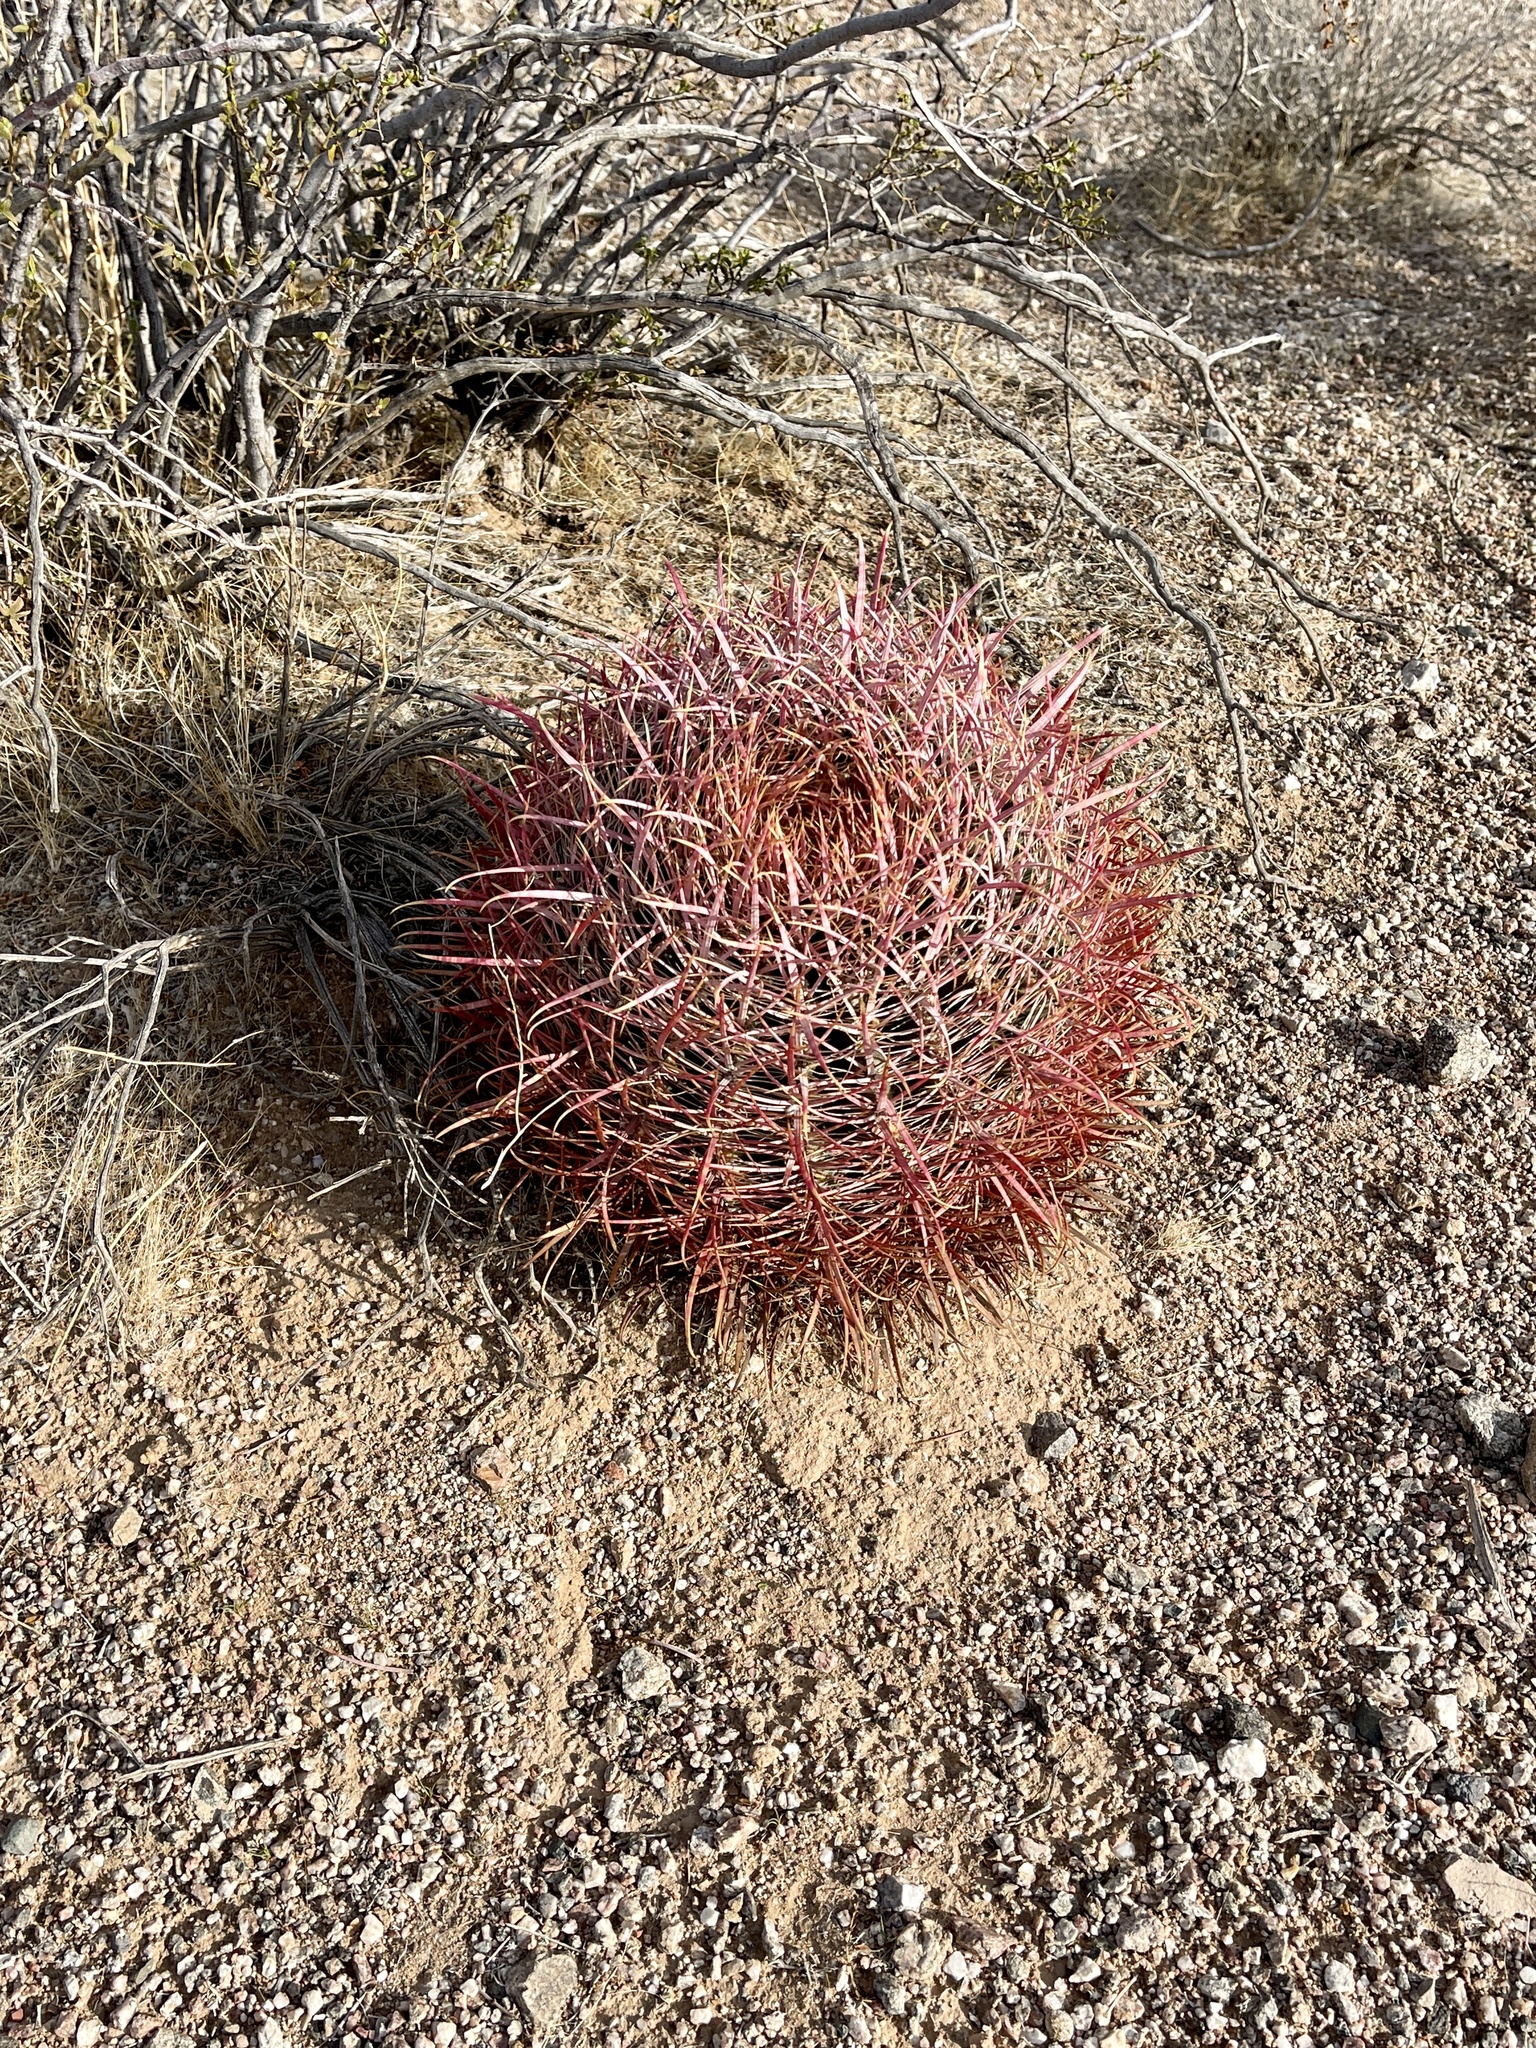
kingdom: Plantae
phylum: Tracheophyta
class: Magnoliopsida
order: Caryophyllales
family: Cactaceae
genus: Ferocactus
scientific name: Ferocactus cylindraceus
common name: California barrel cactus
